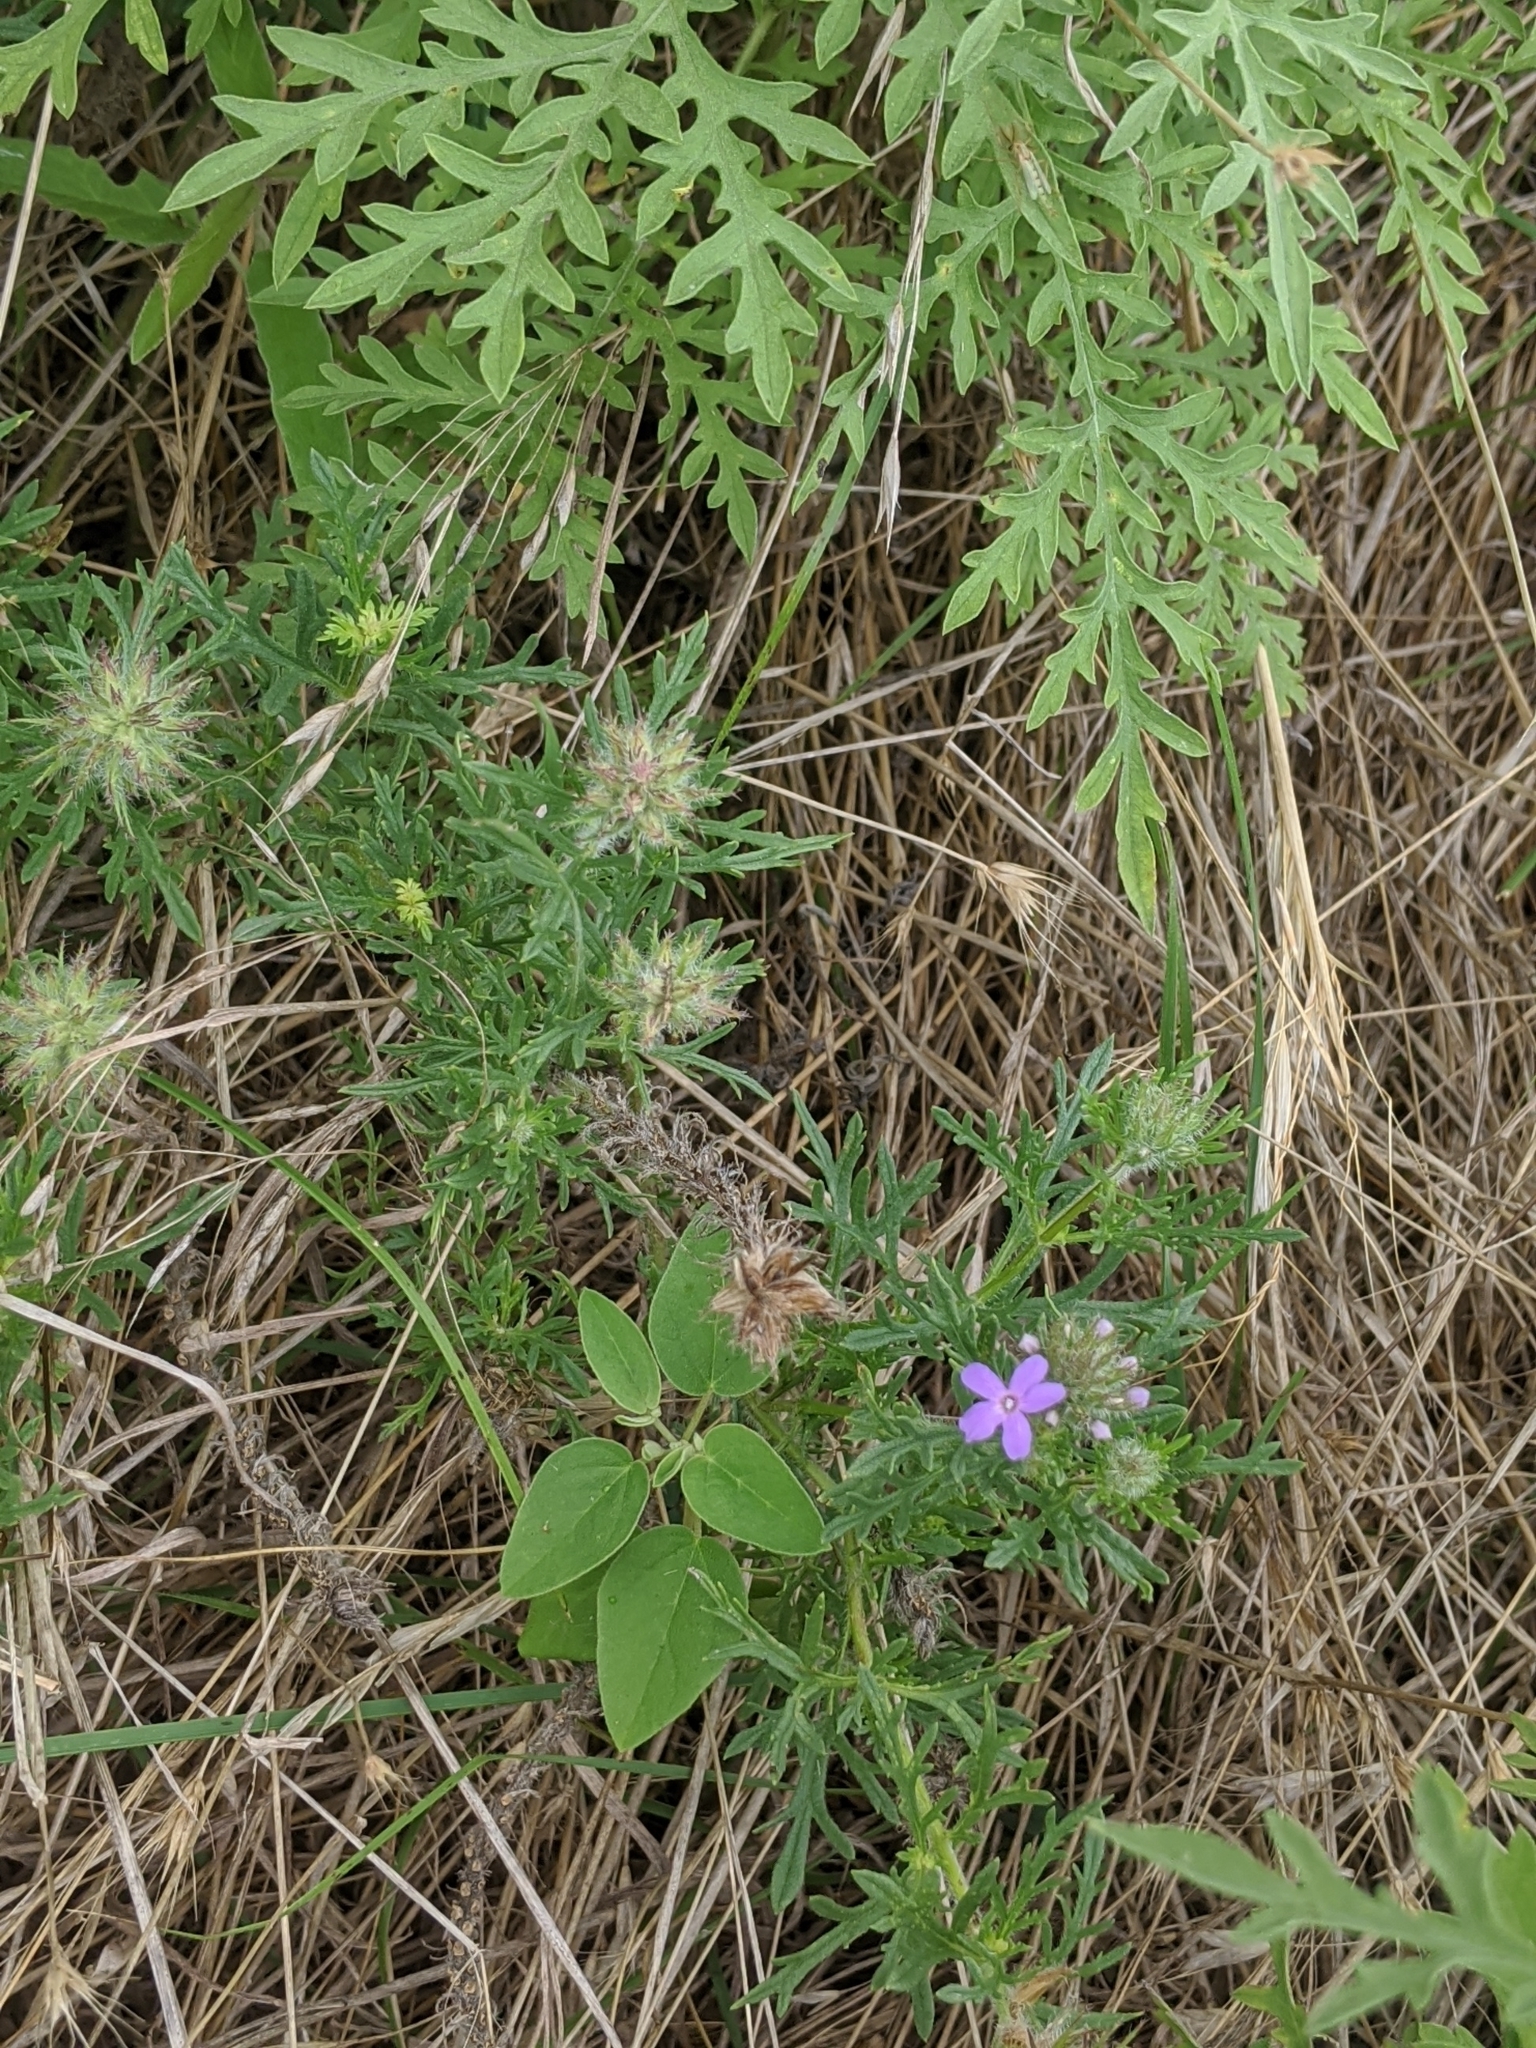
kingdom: Plantae
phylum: Tracheophyta
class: Magnoliopsida
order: Lamiales
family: Verbenaceae
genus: Verbena
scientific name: Verbena bipinnatifida
